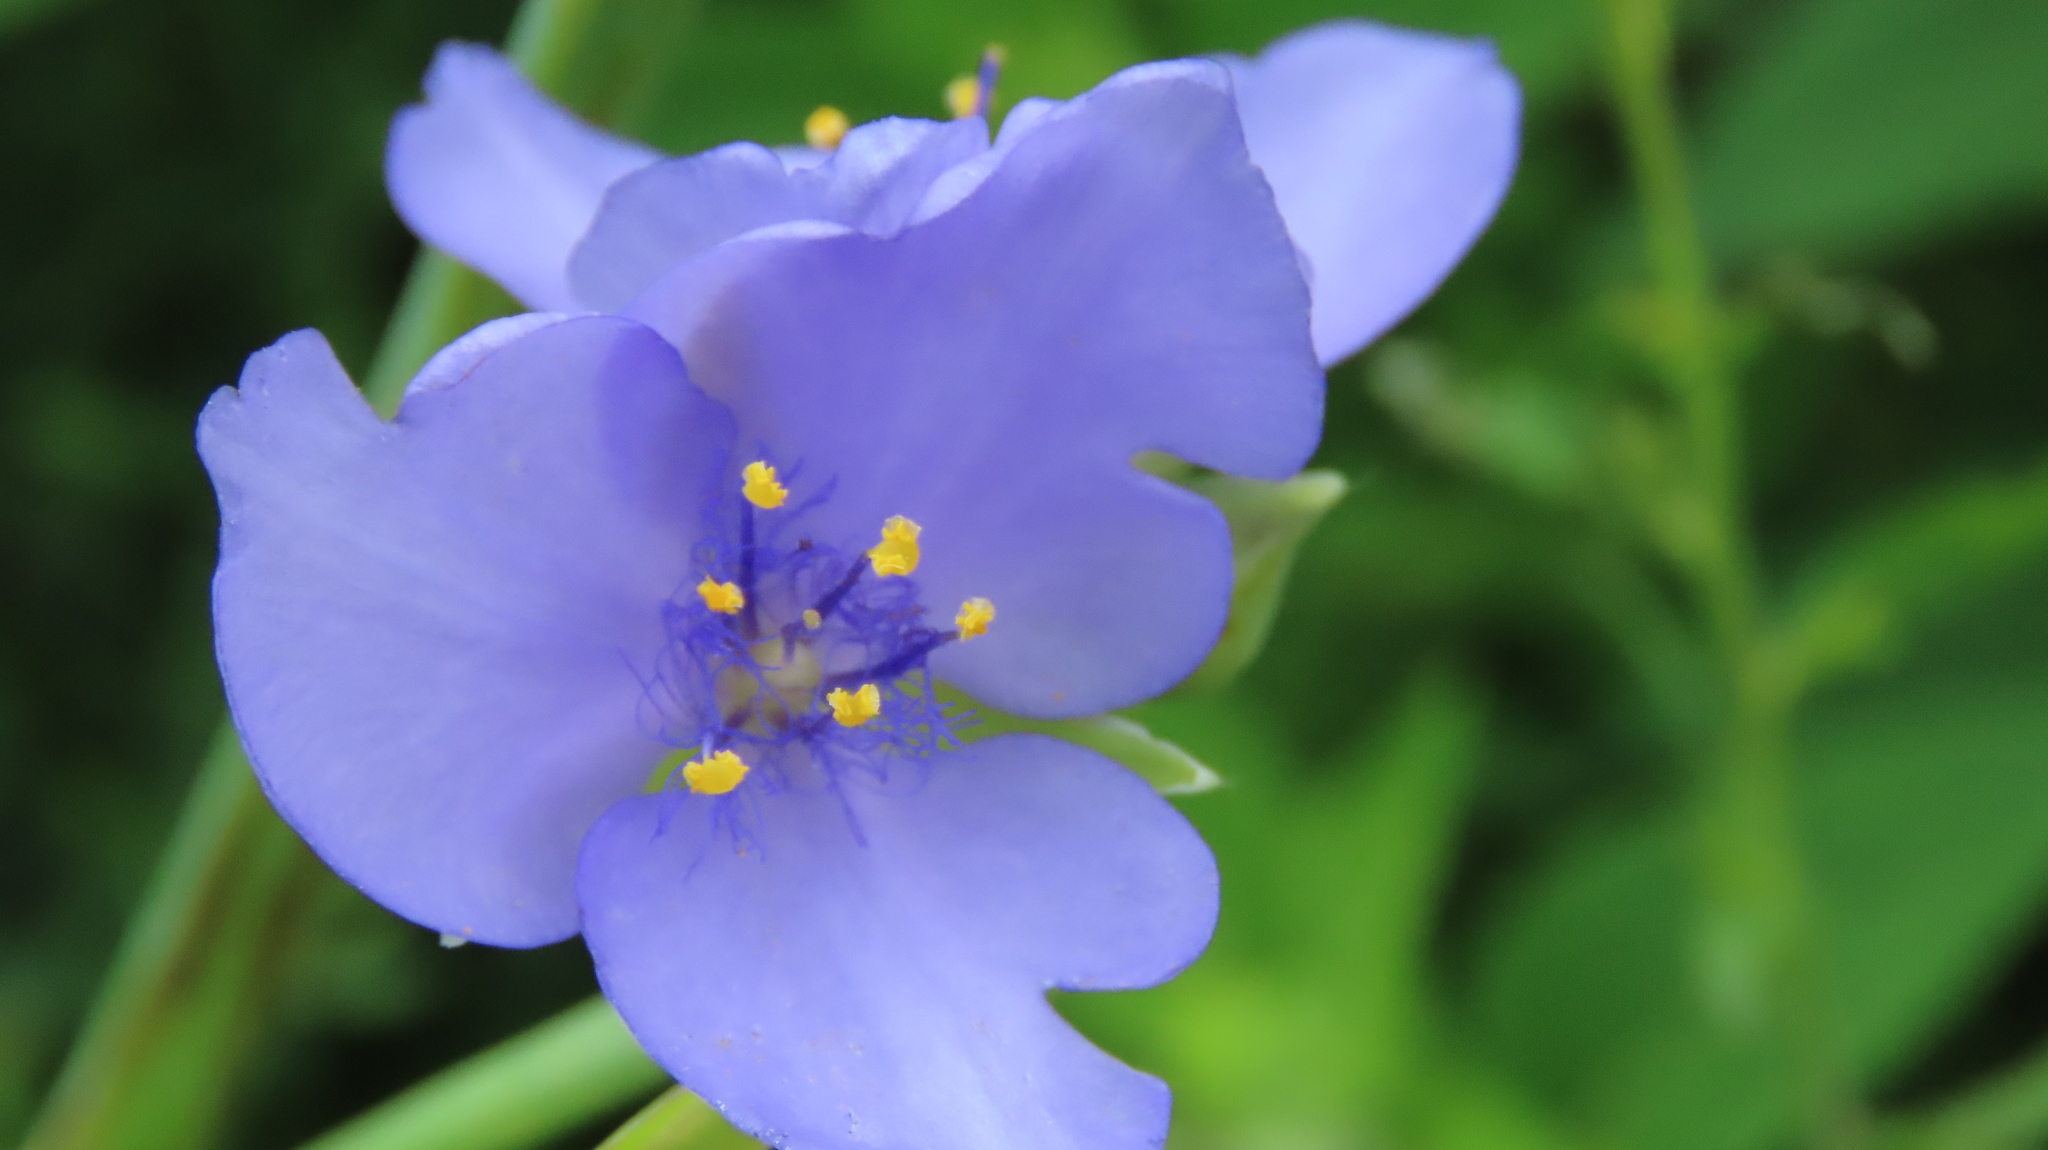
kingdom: Plantae
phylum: Tracheophyta
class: Liliopsida
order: Commelinales
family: Commelinaceae
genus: Tradescantia
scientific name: Tradescantia ohiensis
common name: Ohio spiderwort
